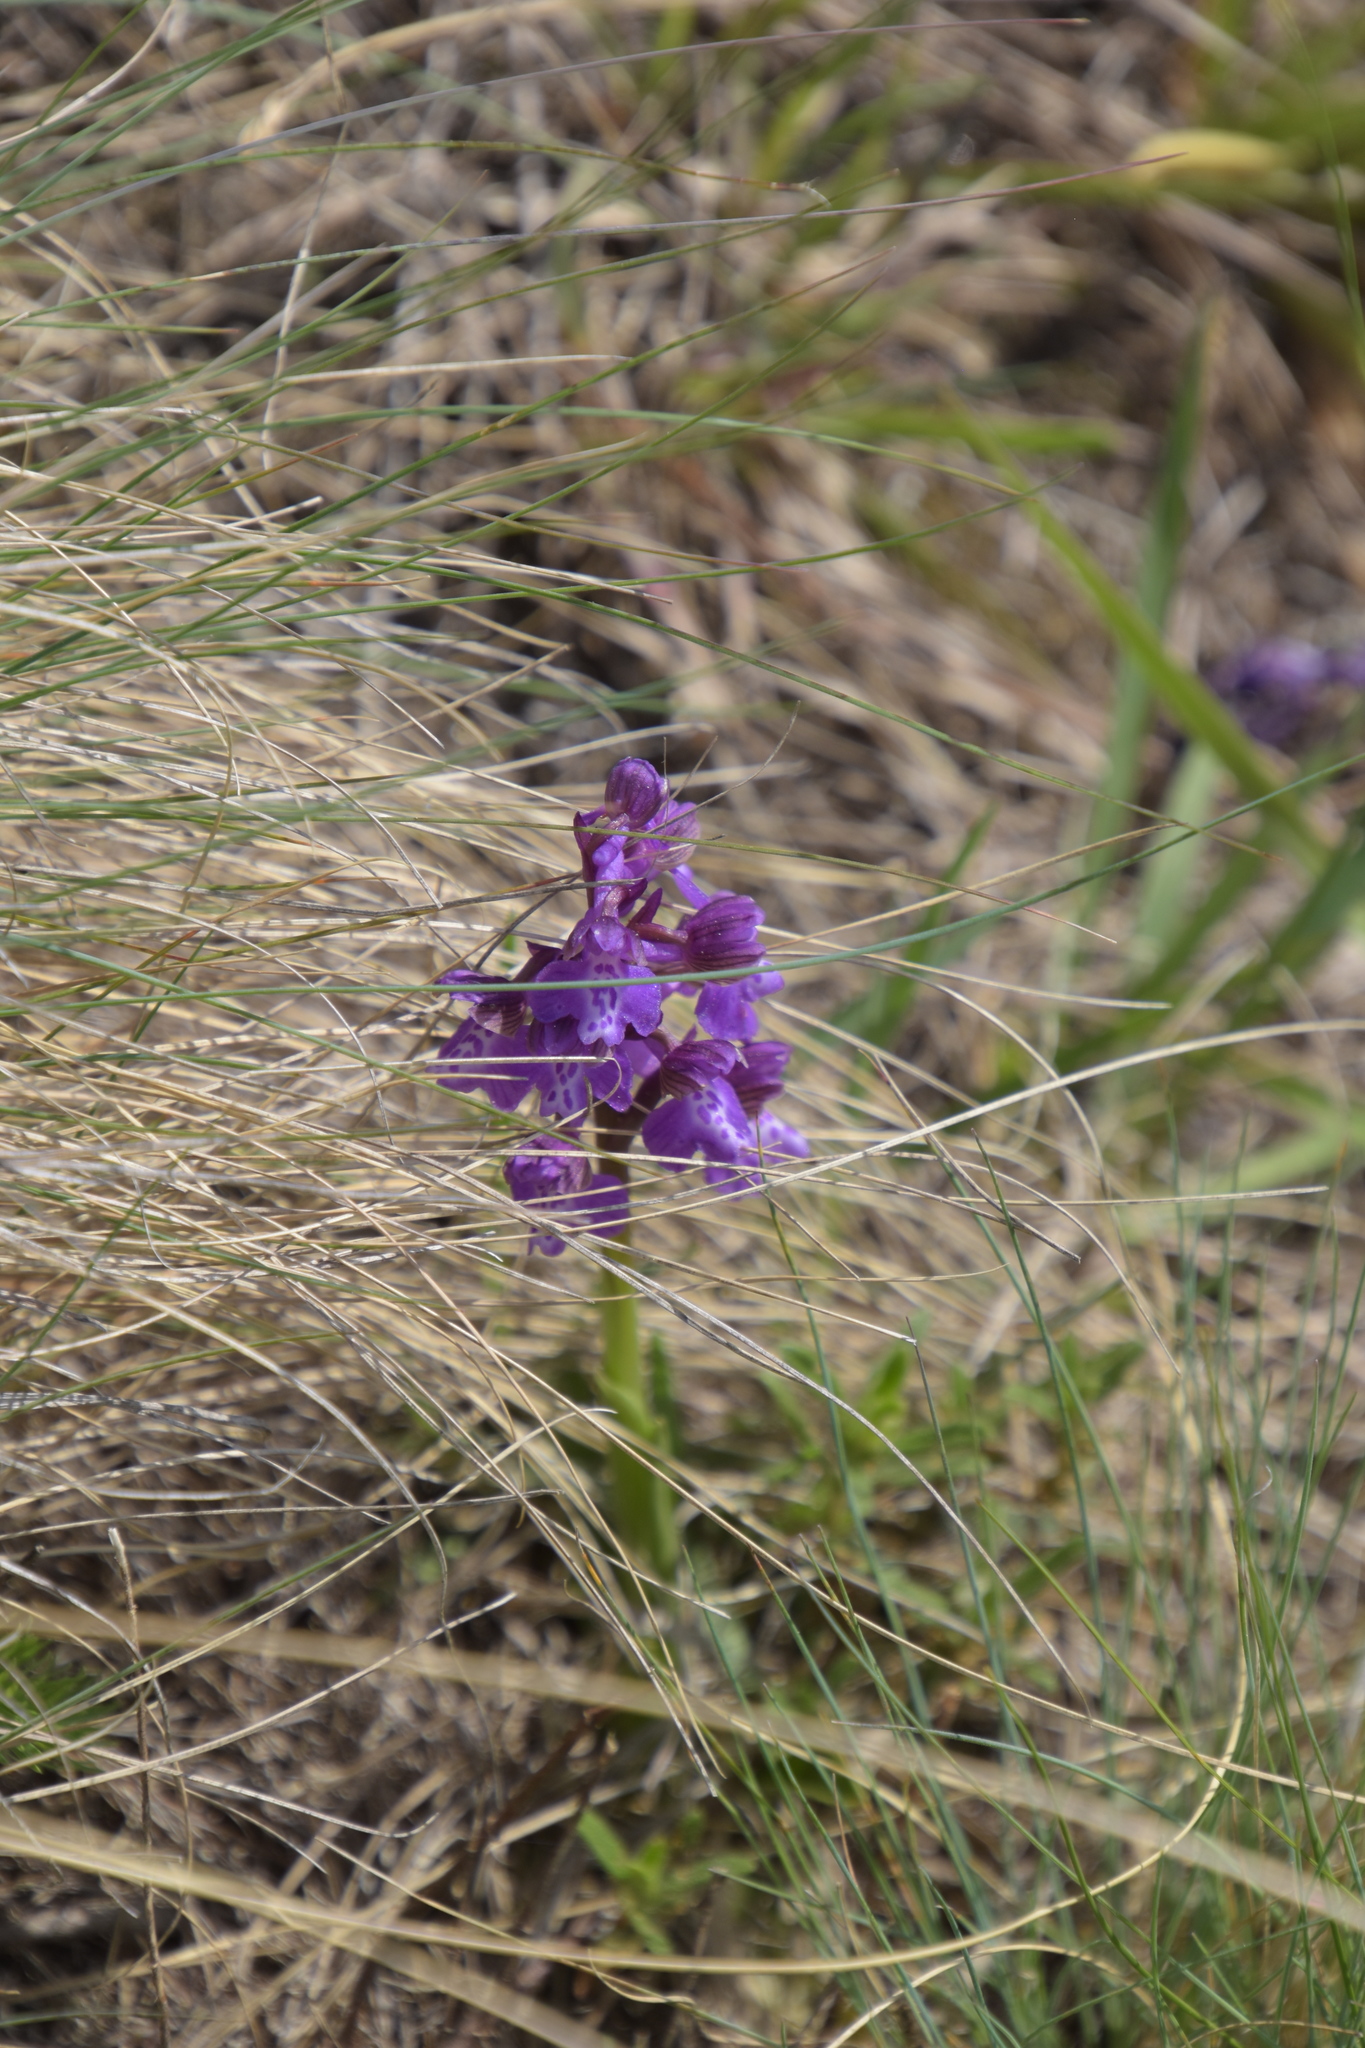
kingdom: Plantae
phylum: Tracheophyta
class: Liliopsida
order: Asparagales
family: Orchidaceae
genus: Anacamptis
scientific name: Anacamptis morio
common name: Green-winged orchid
